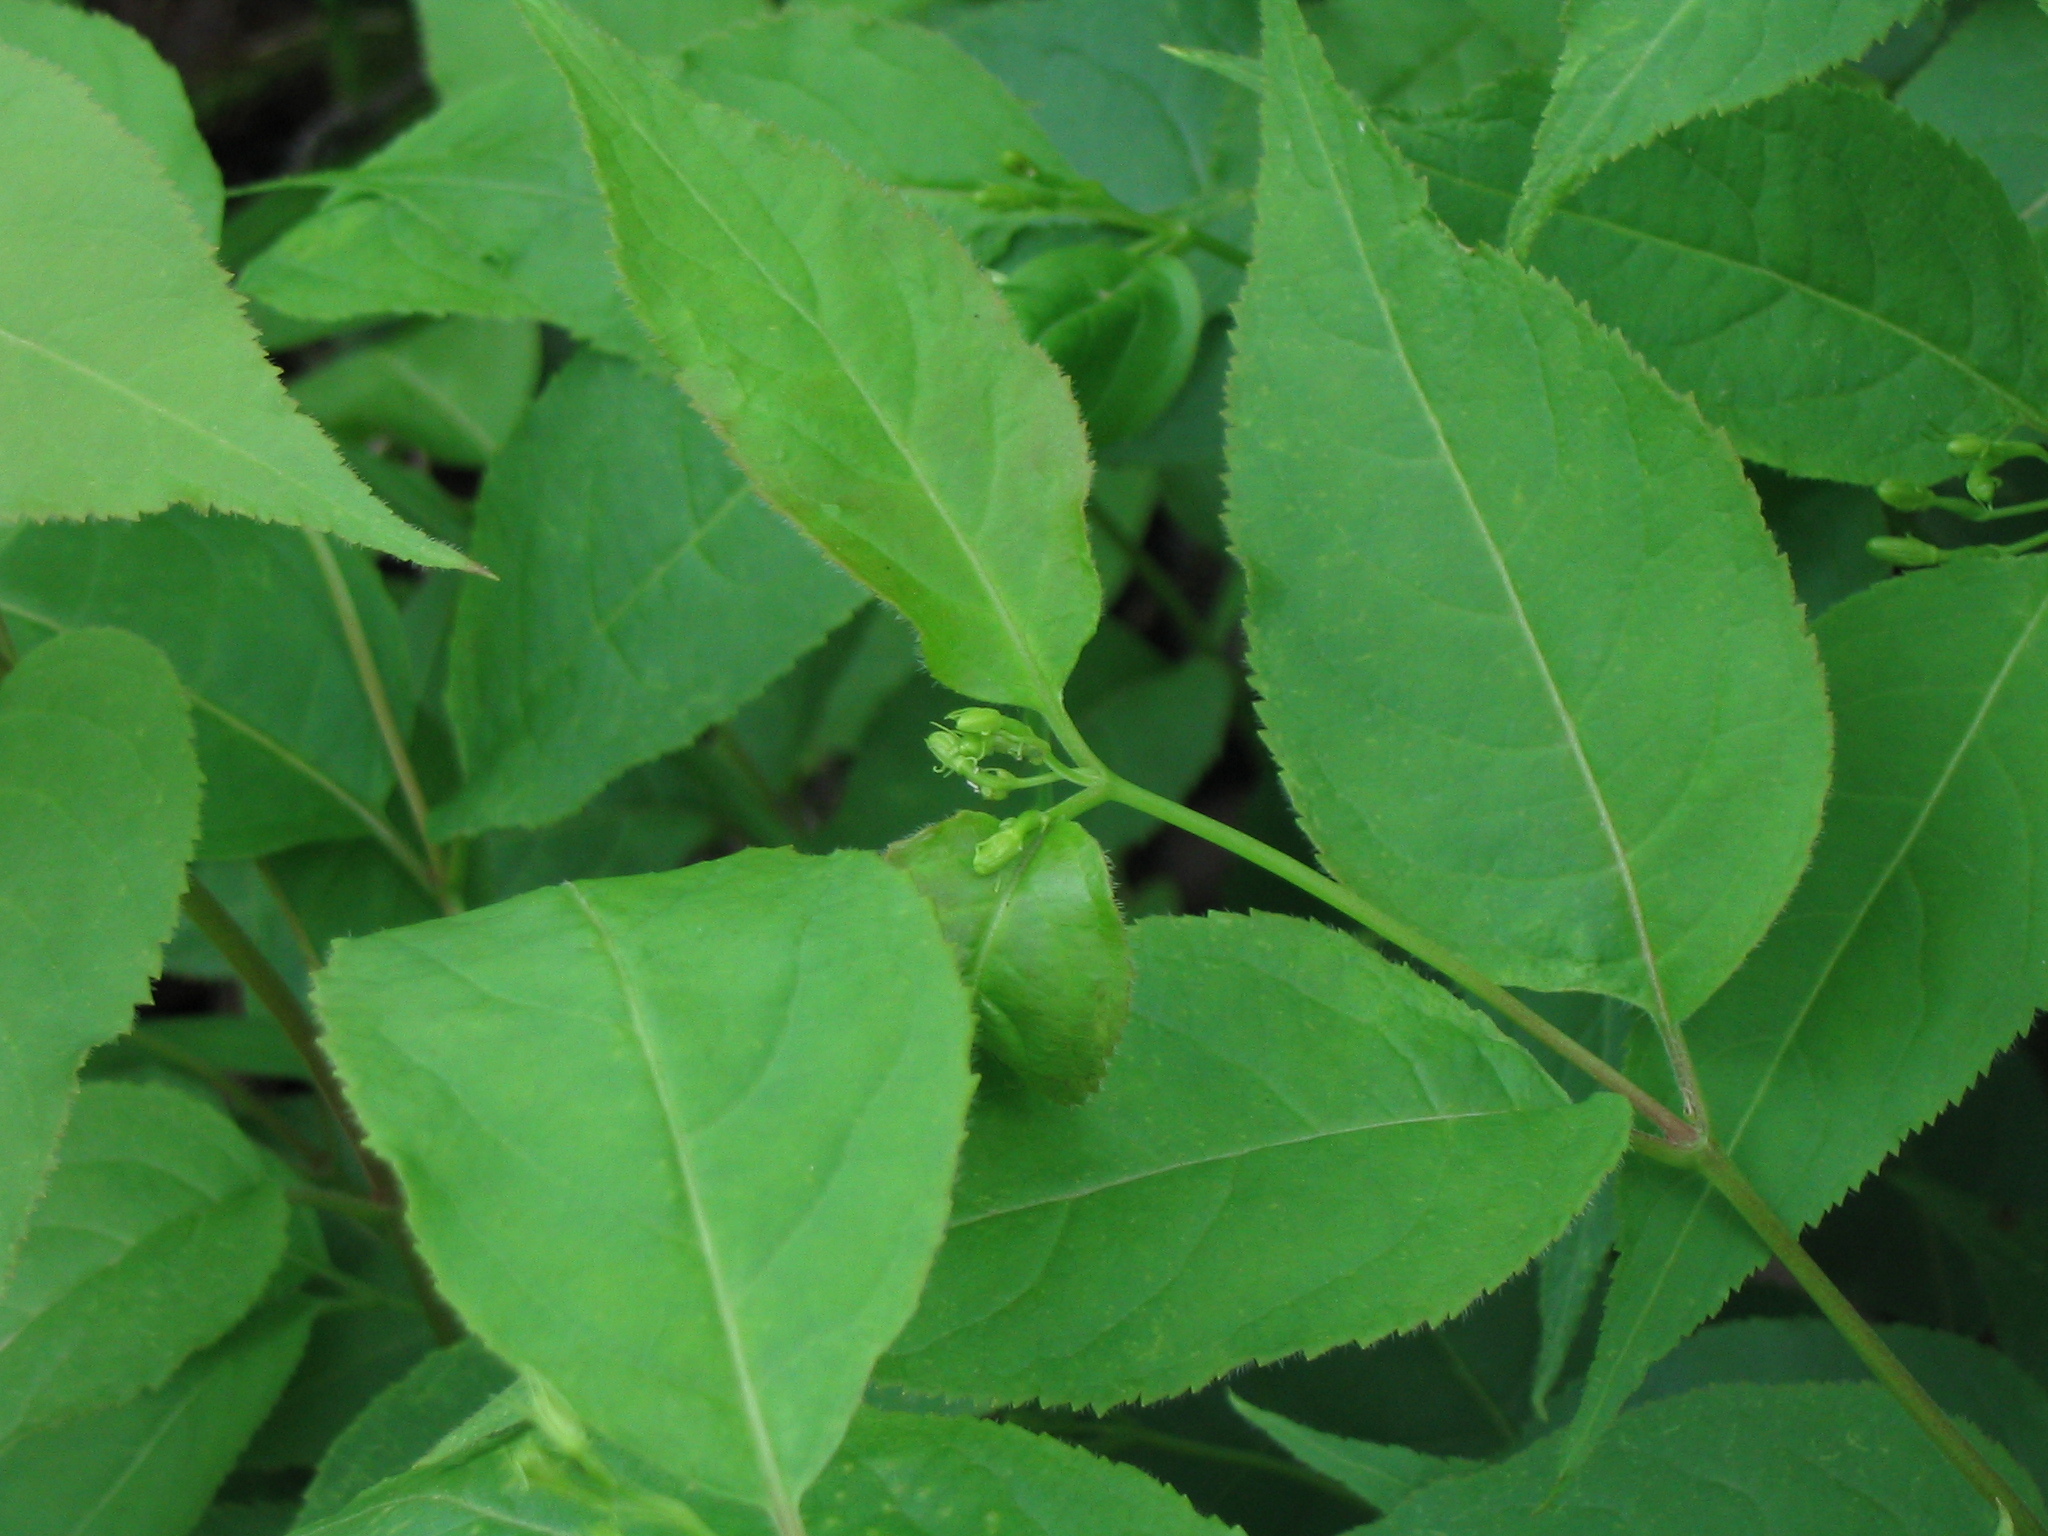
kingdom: Plantae
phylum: Tracheophyta
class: Magnoliopsida
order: Dipsacales
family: Caprifoliaceae
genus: Diervilla
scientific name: Diervilla lonicera
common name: Bush-honeysuckle
